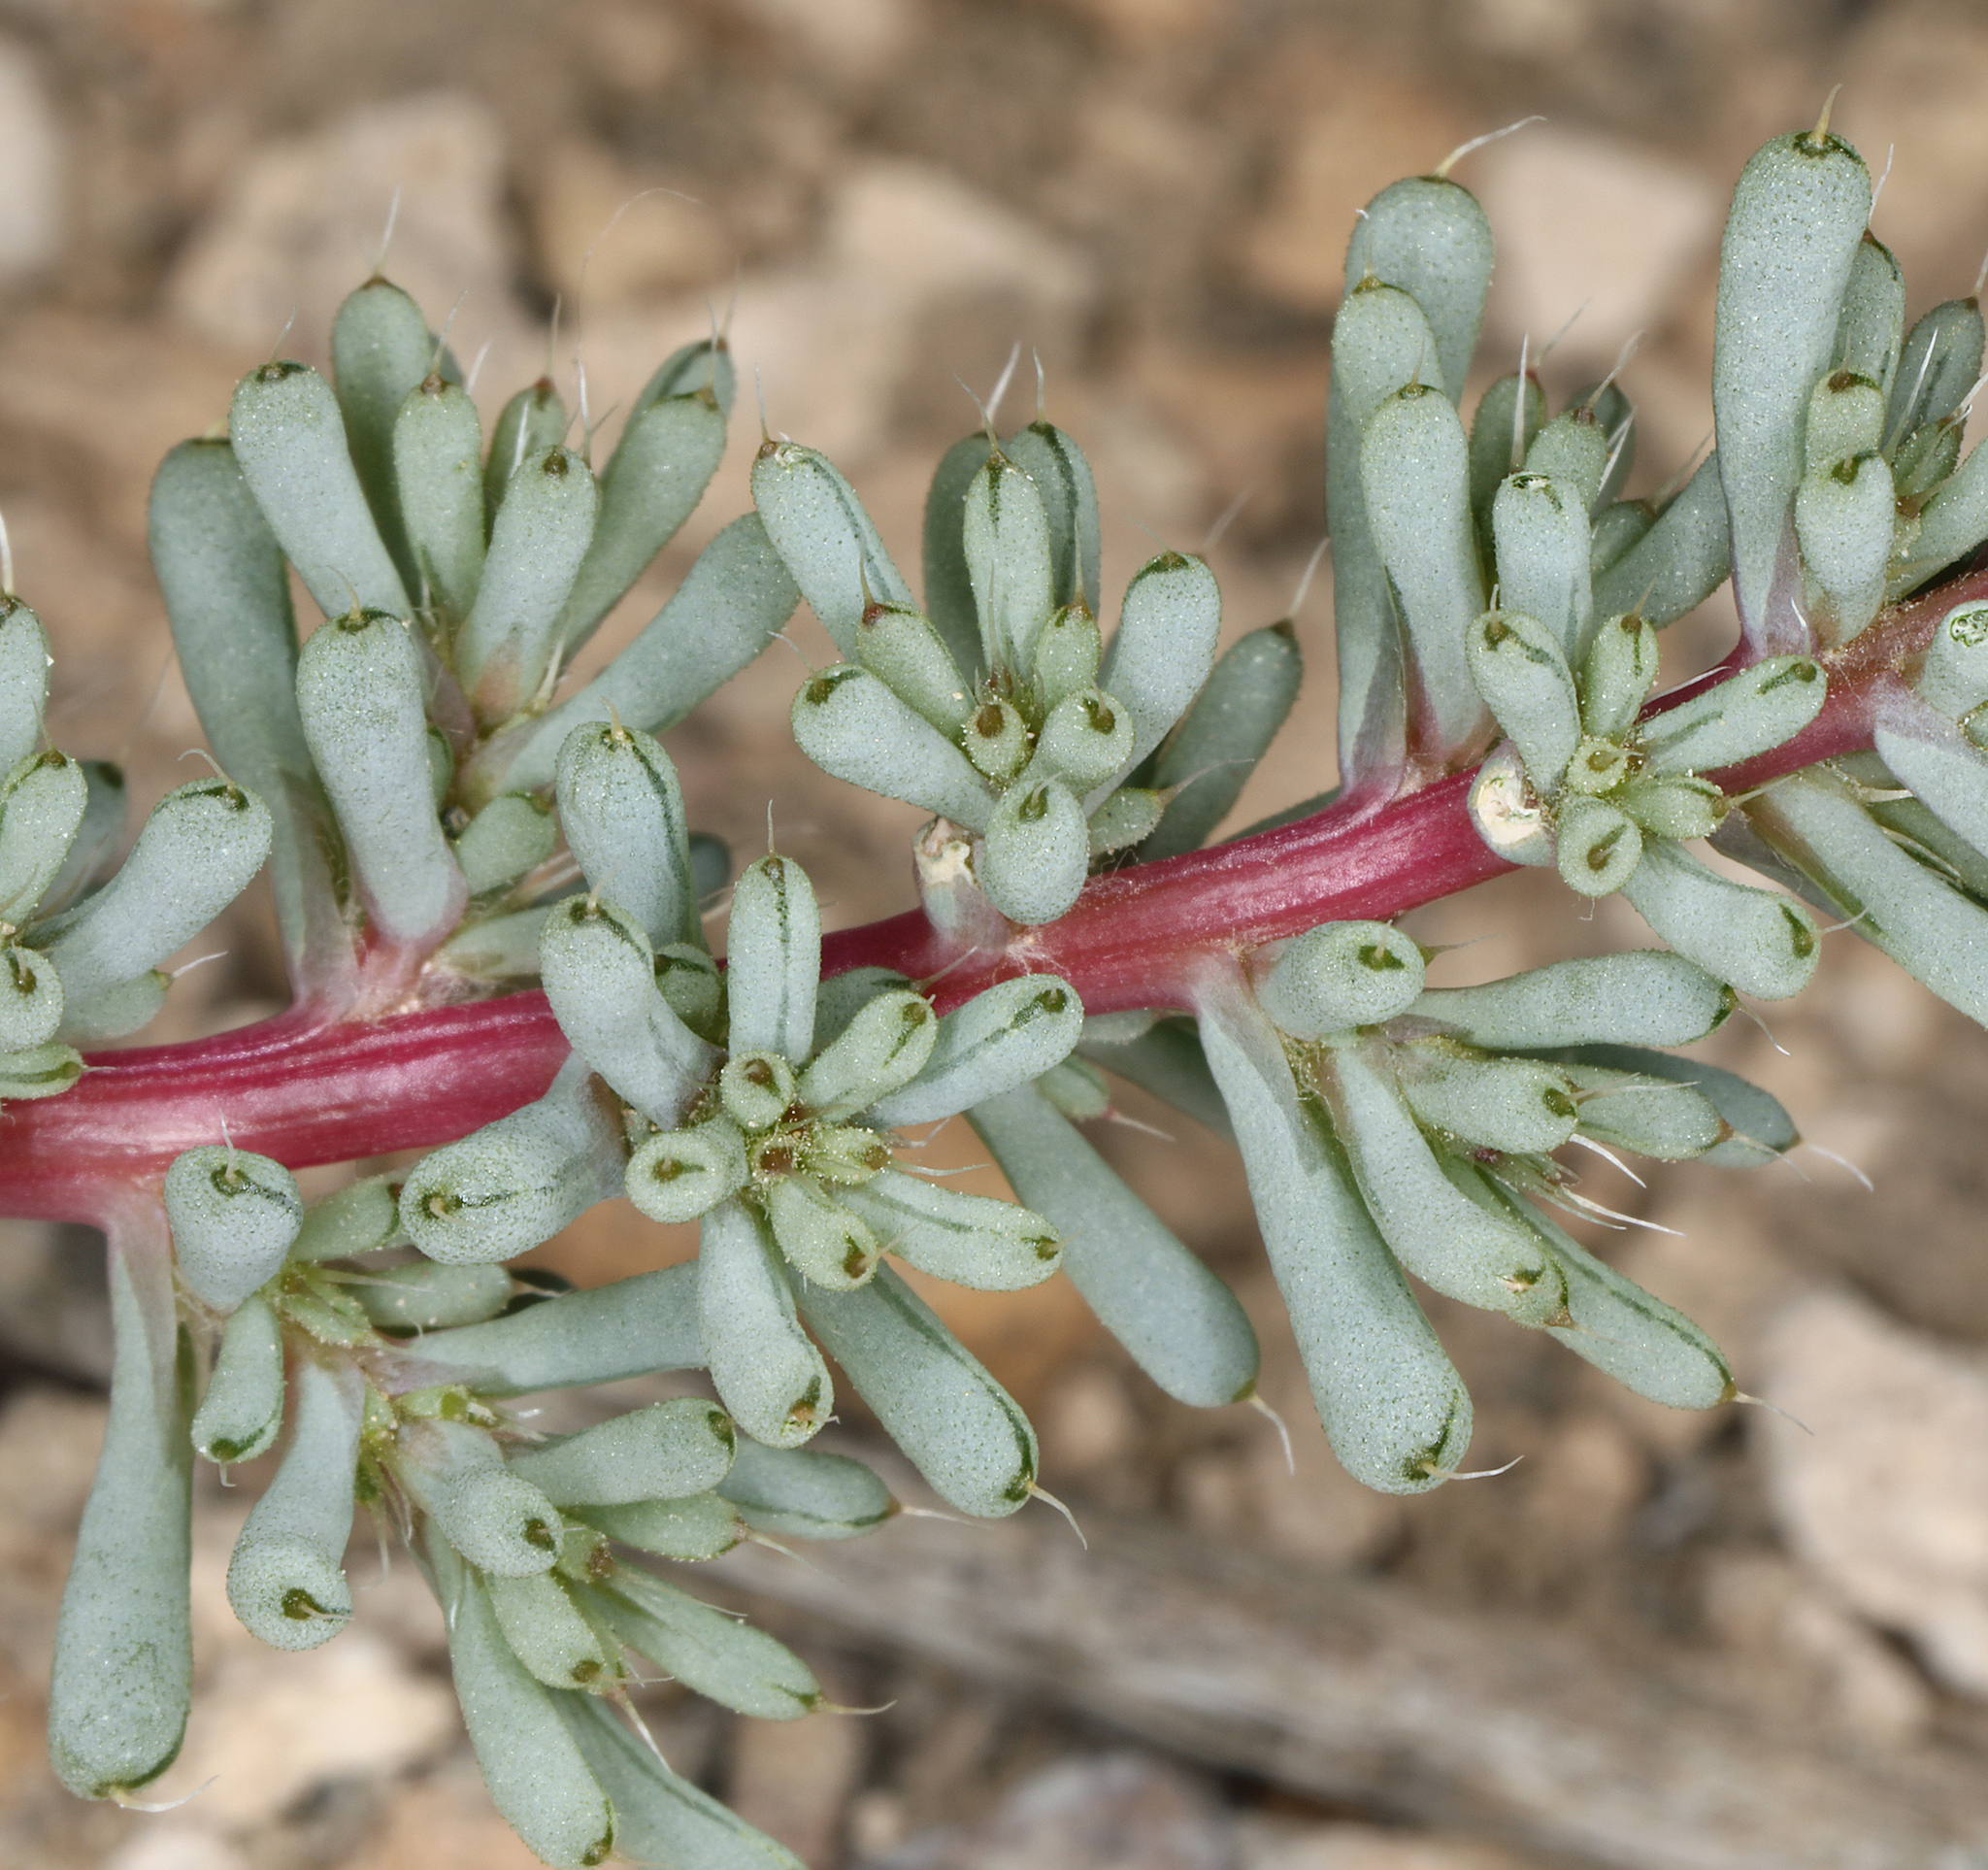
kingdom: Plantae
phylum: Tracheophyta
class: Magnoliopsida
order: Caryophyllales
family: Amaranthaceae
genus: Halogeton
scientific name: Halogeton glomeratus
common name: Saltlover
